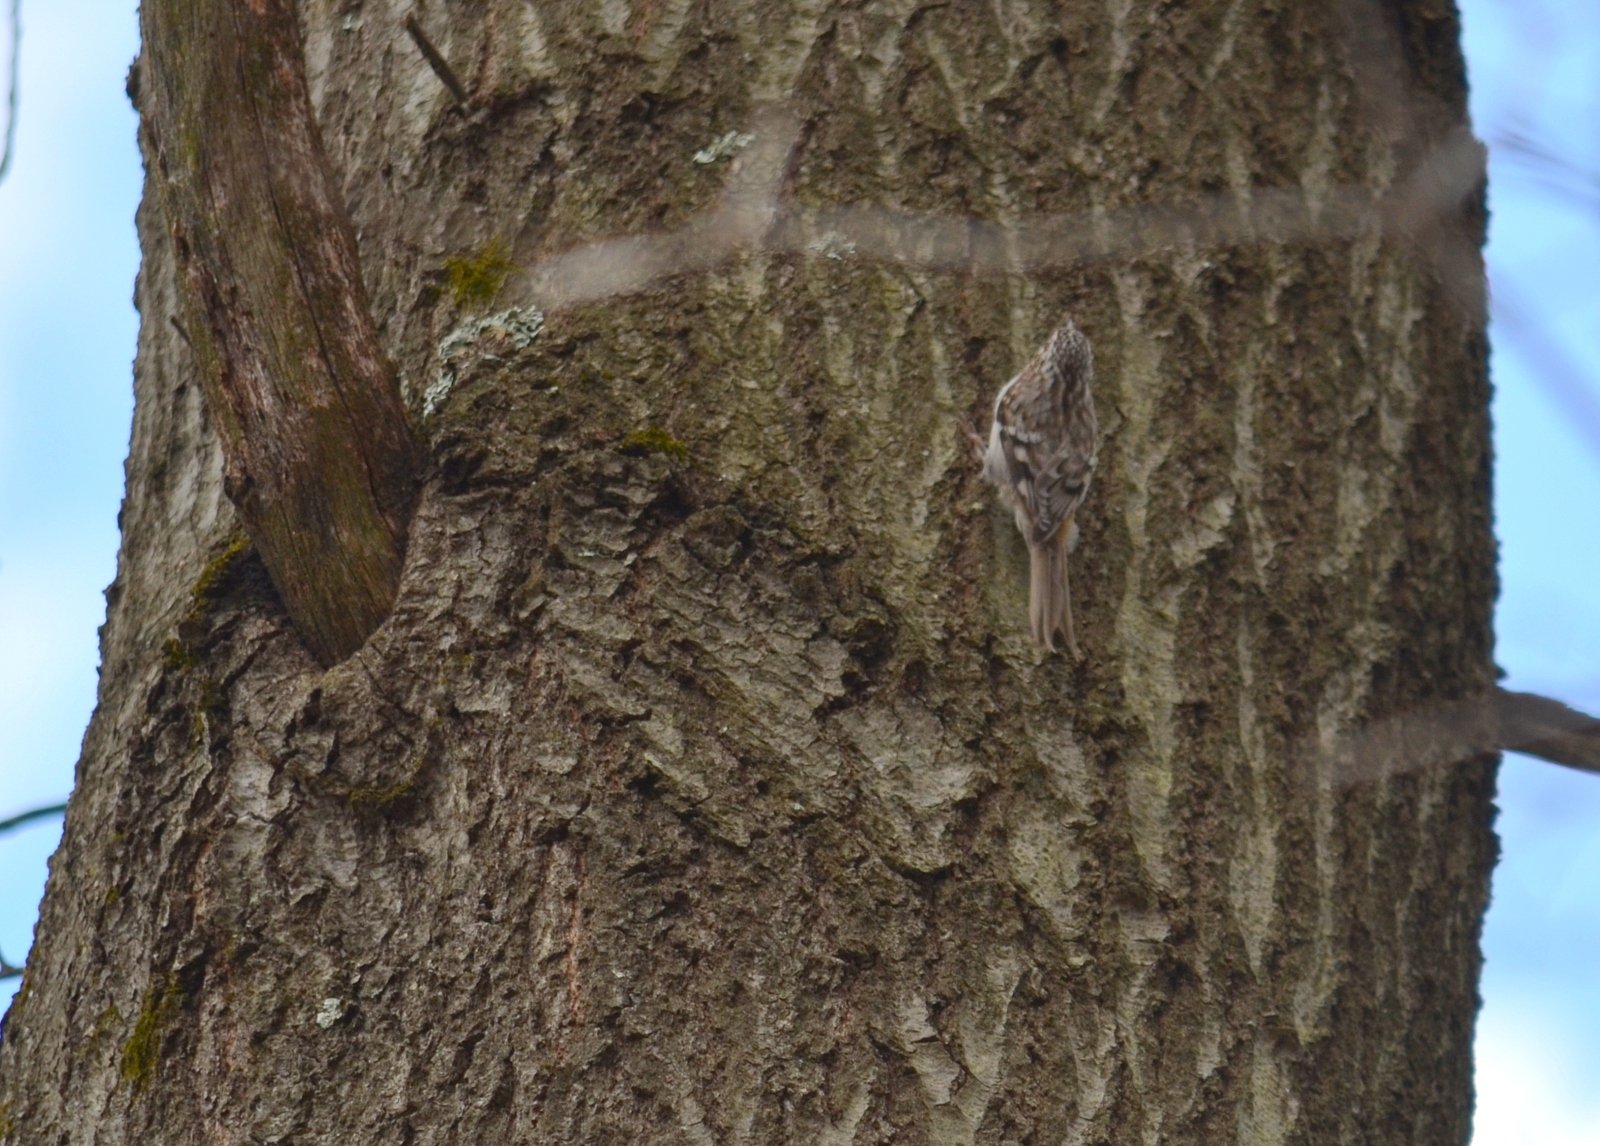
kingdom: Animalia
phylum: Chordata
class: Aves
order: Passeriformes
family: Certhiidae
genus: Certhia
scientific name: Certhia americana
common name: Brown creeper
